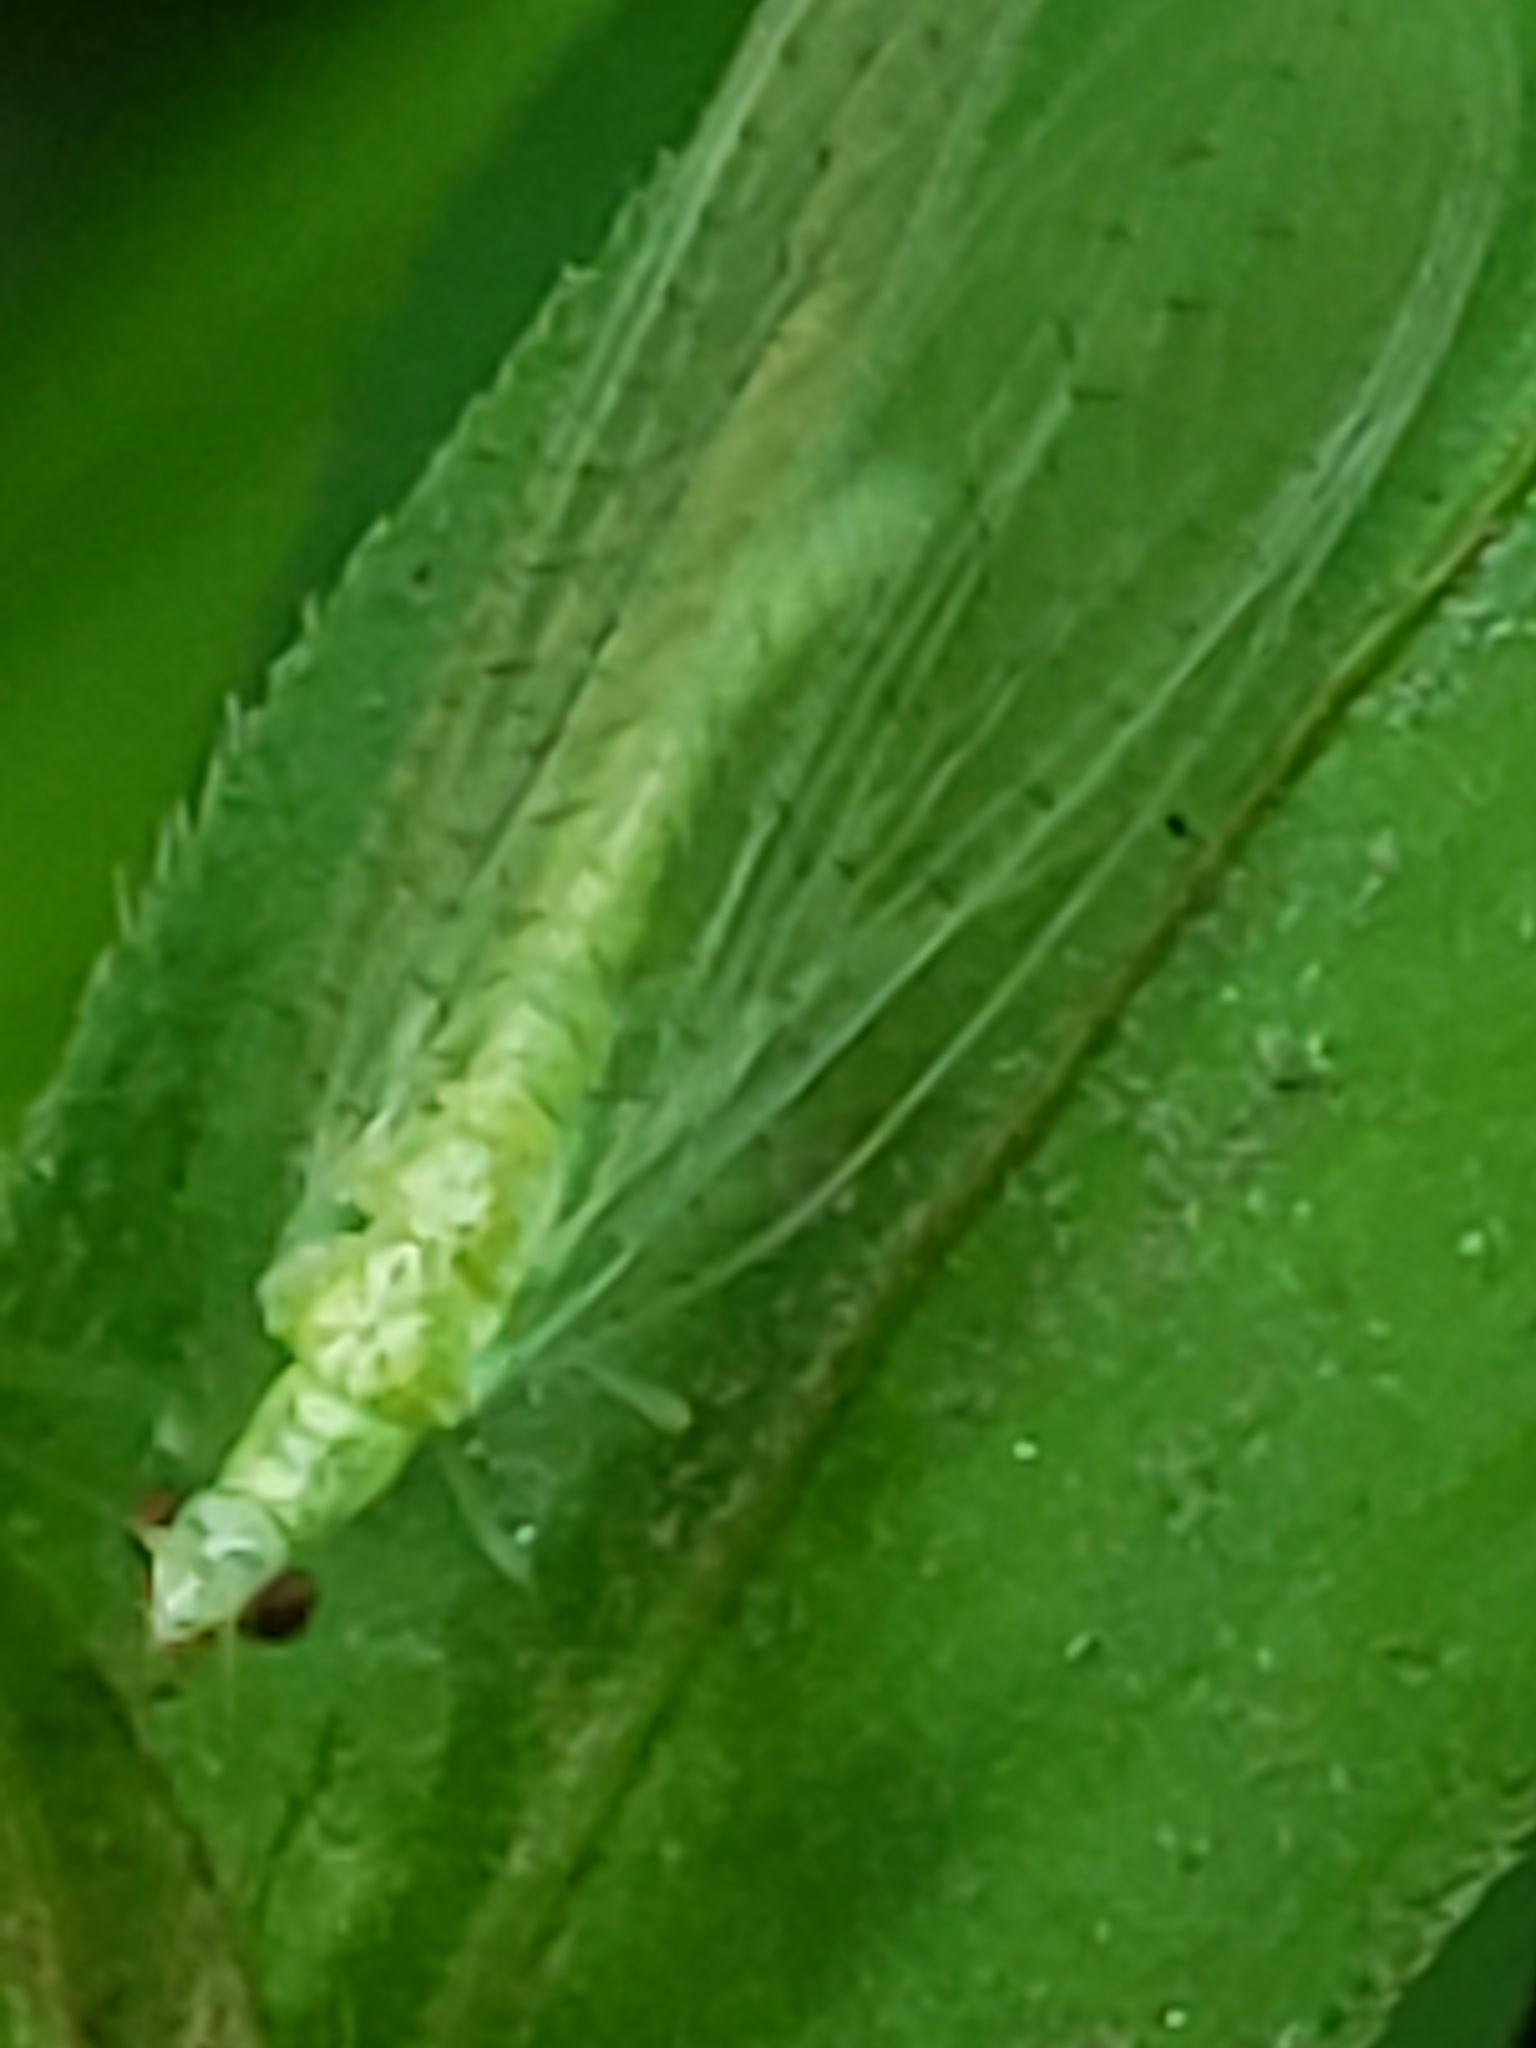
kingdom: Animalia
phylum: Arthropoda
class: Insecta
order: Neuroptera
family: Chrysopidae
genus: Chrysoperla
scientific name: Chrysoperla
